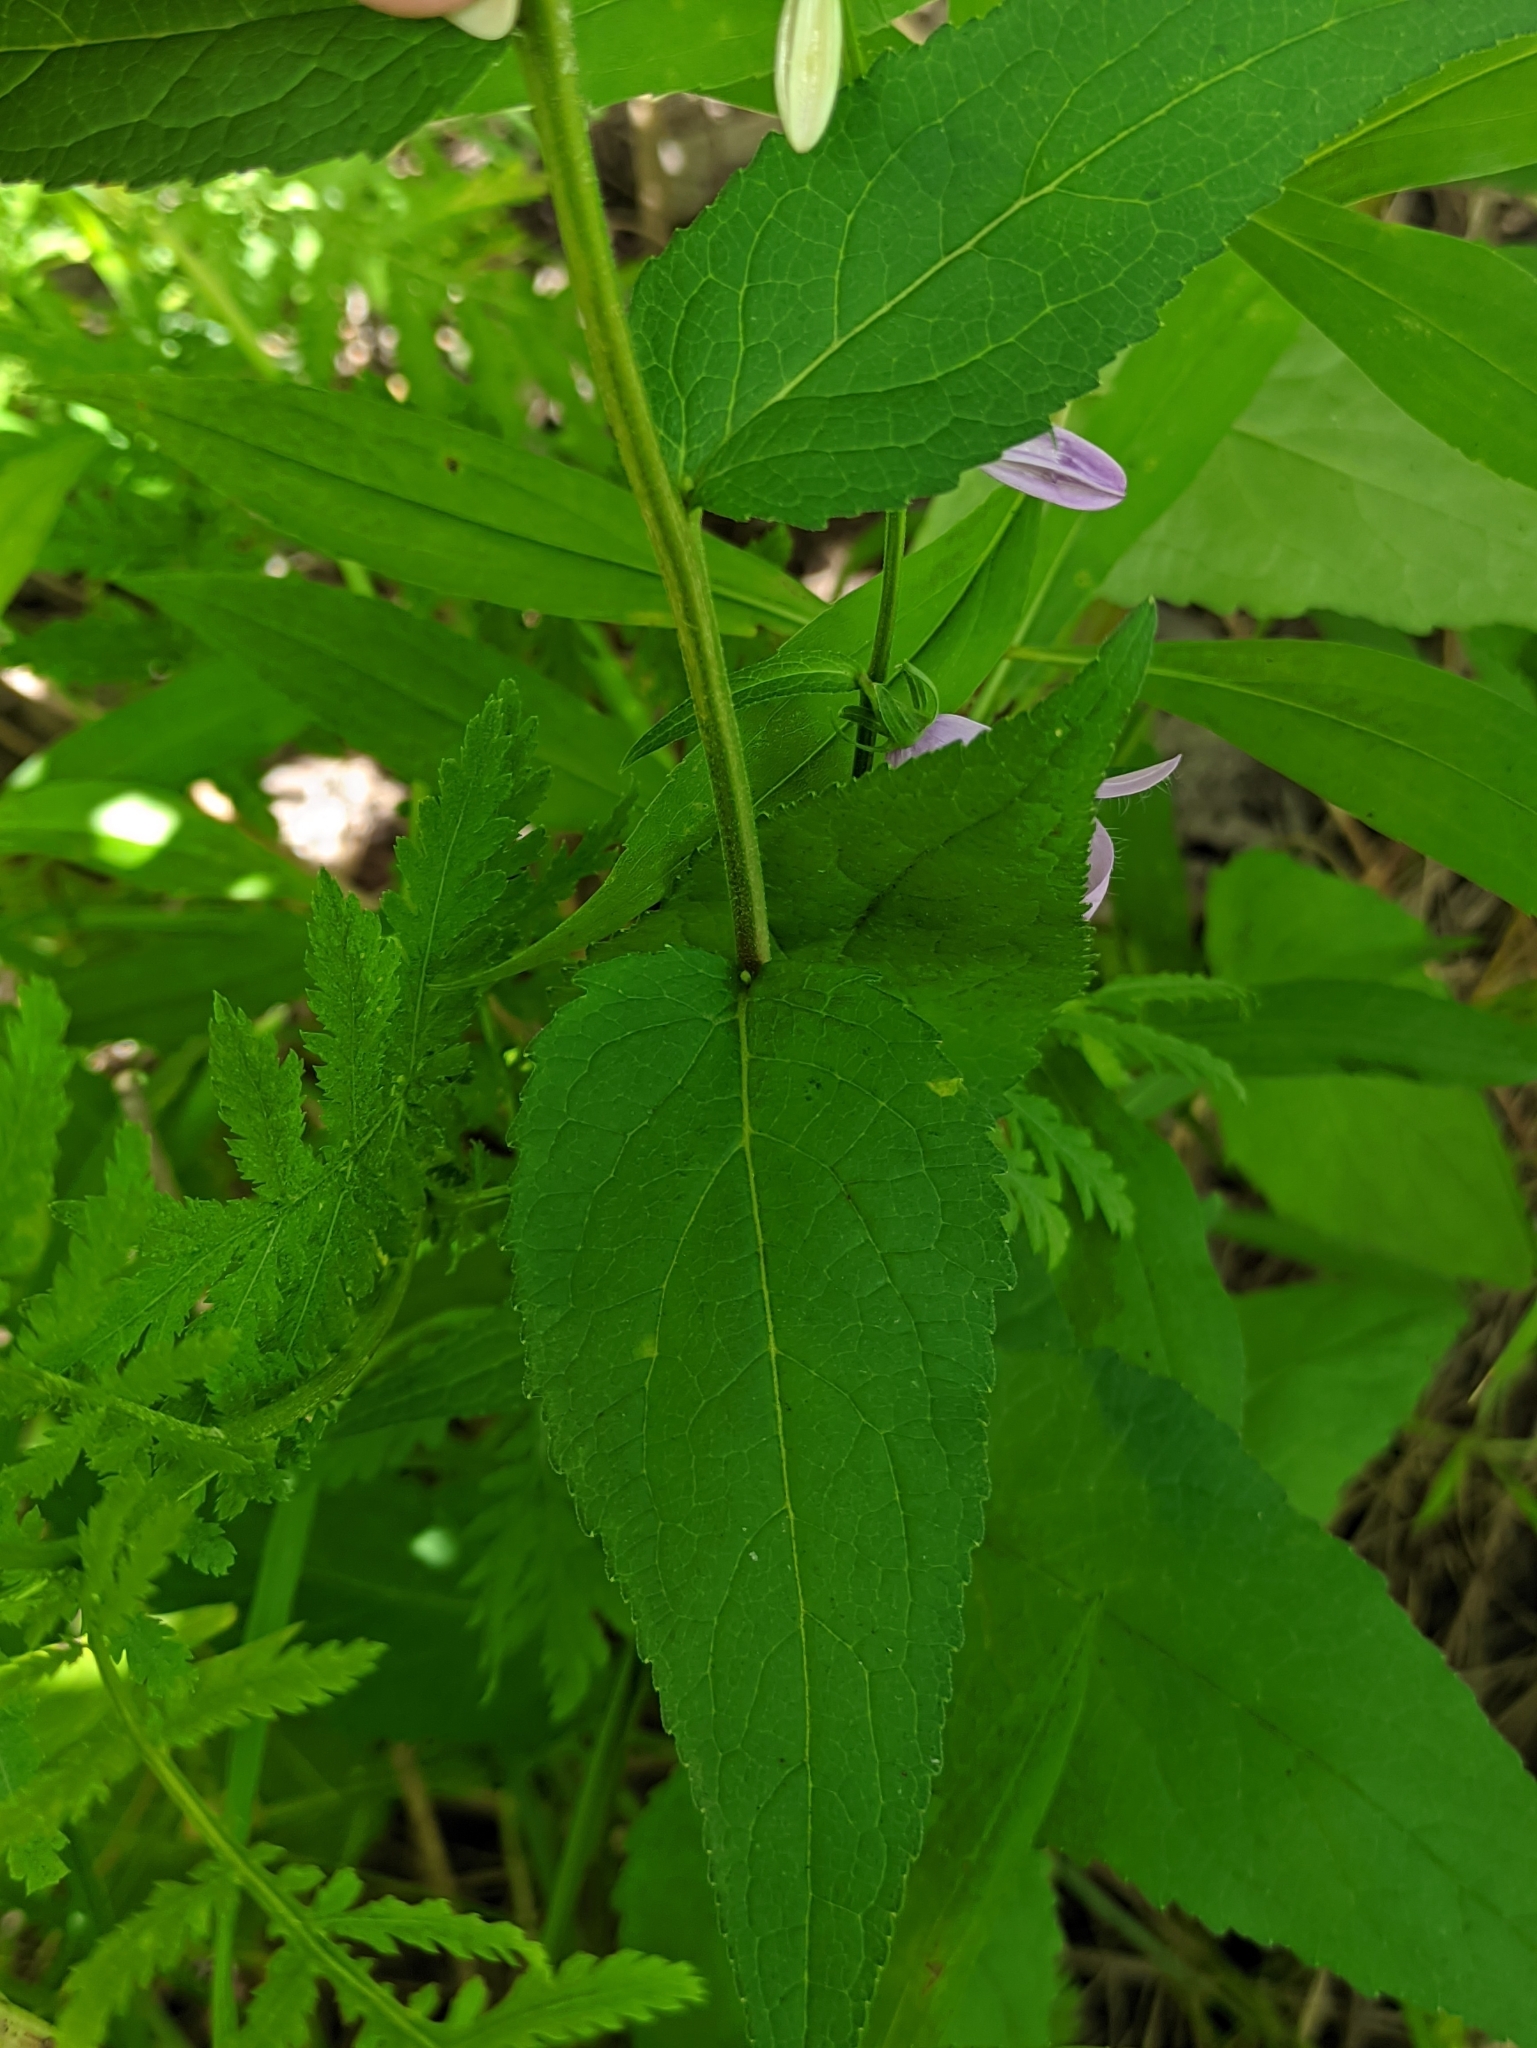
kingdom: Plantae
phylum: Tracheophyta
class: Magnoliopsida
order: Asterales
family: Campanulaceae
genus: Campanula
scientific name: Campanula rapunculoides
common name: Creeping bellflower
